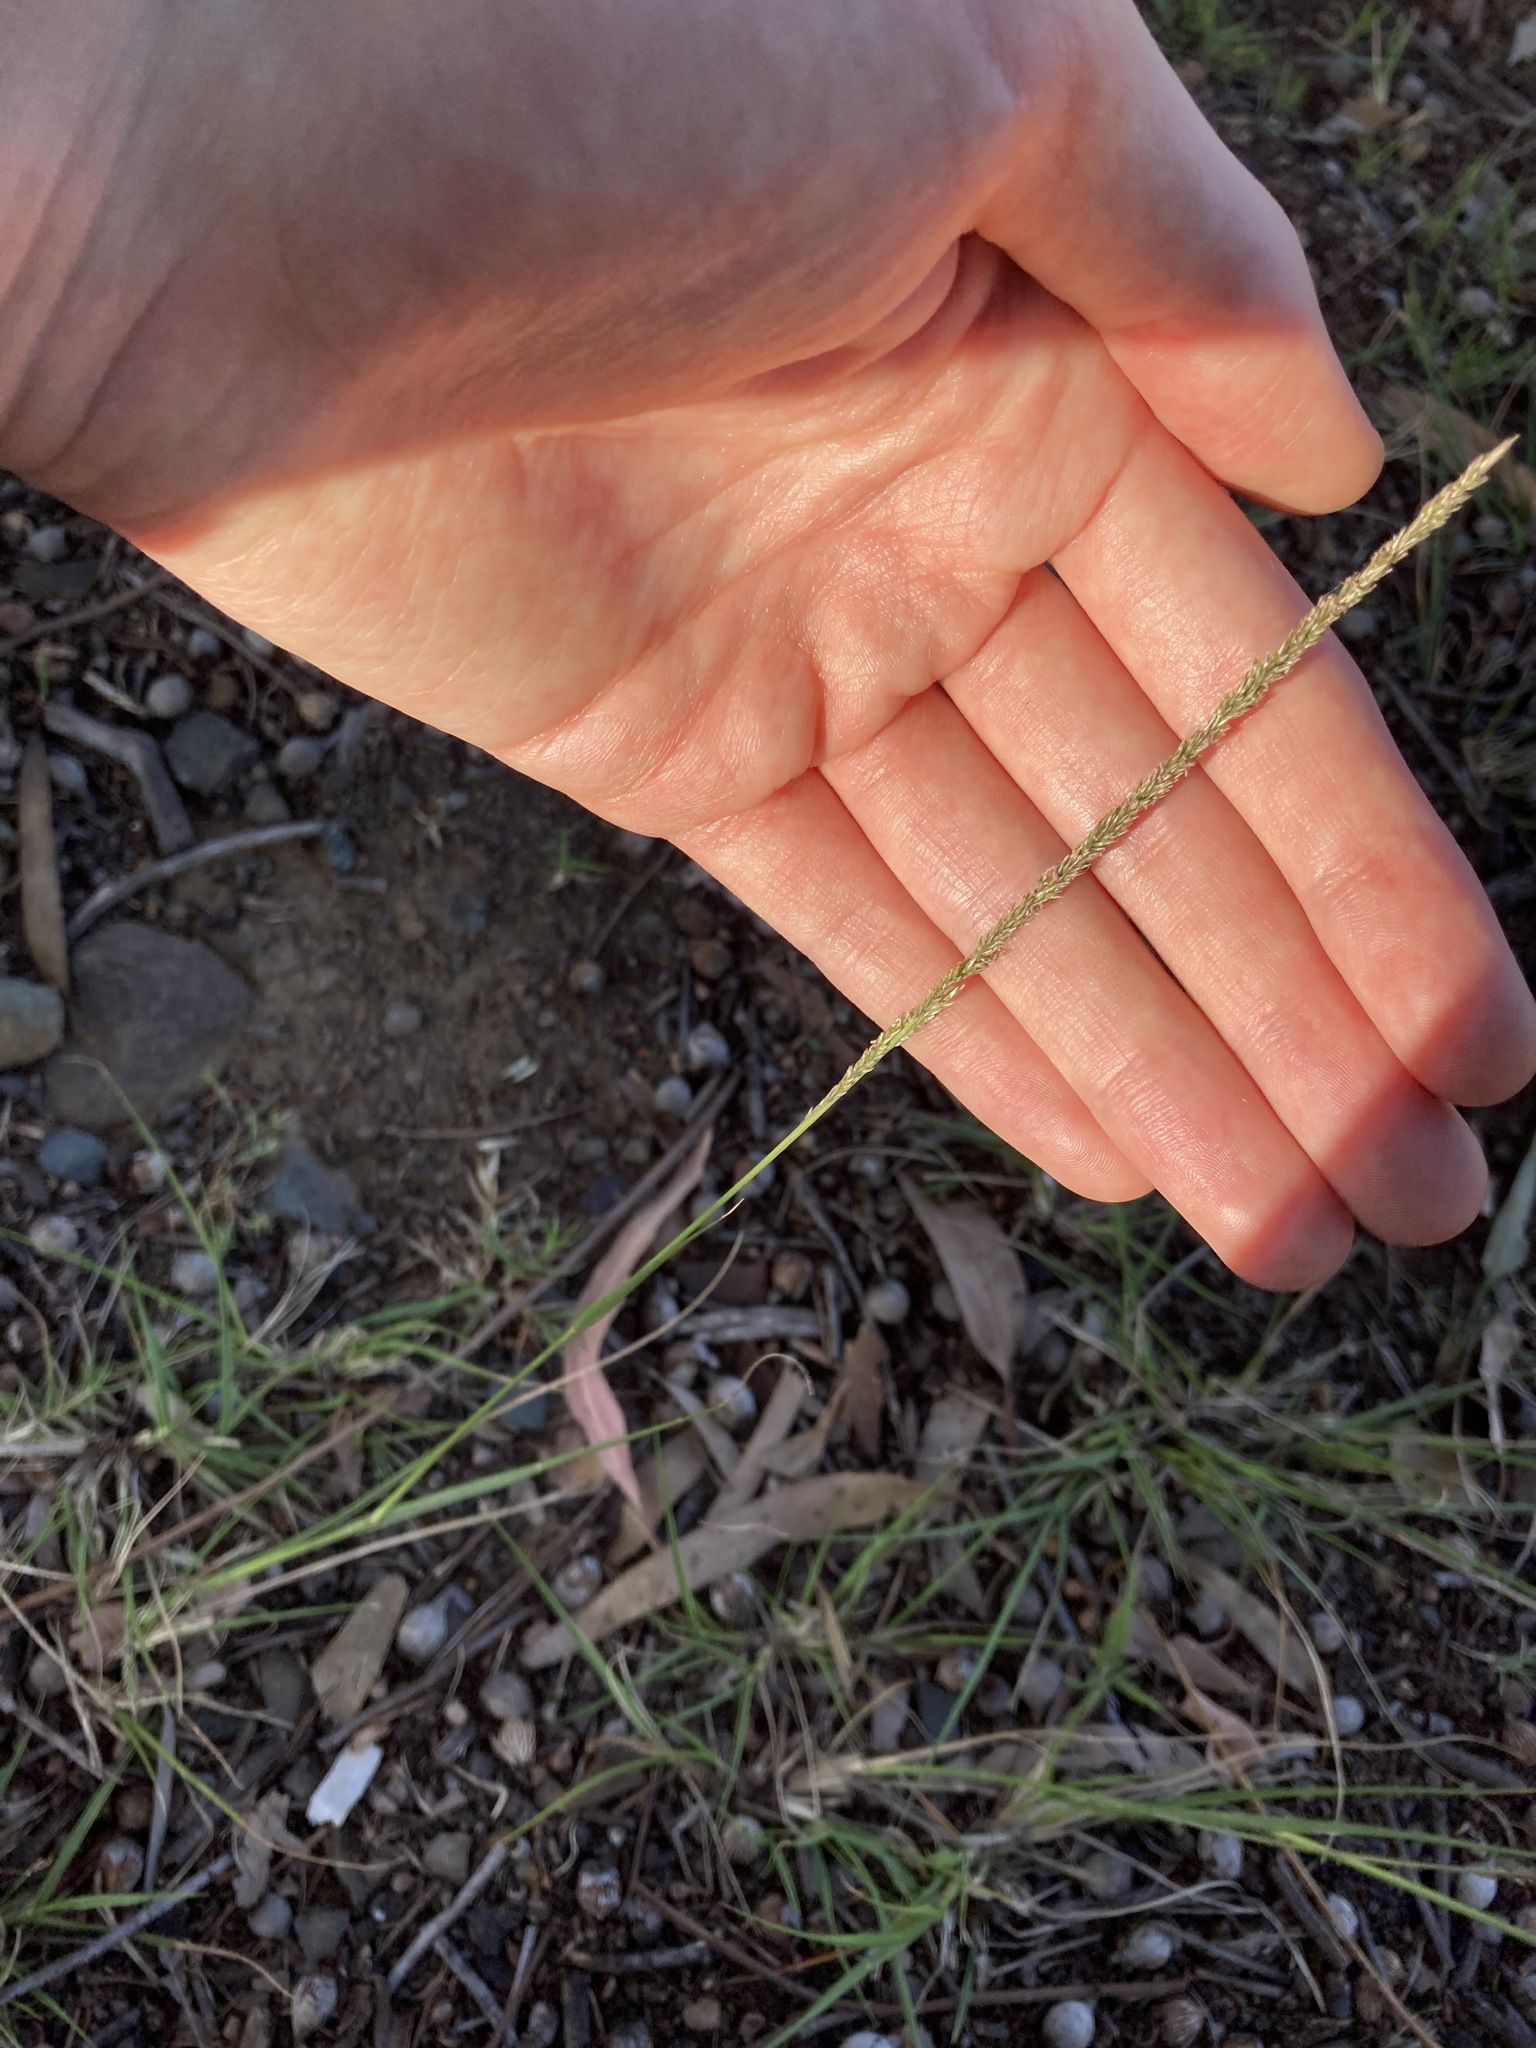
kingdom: Plantae
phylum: Tracheophyta
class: Liliopsida
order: Poales
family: Poaceae
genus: Sporobolus
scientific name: Sporobolus africanus
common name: African dropseed
